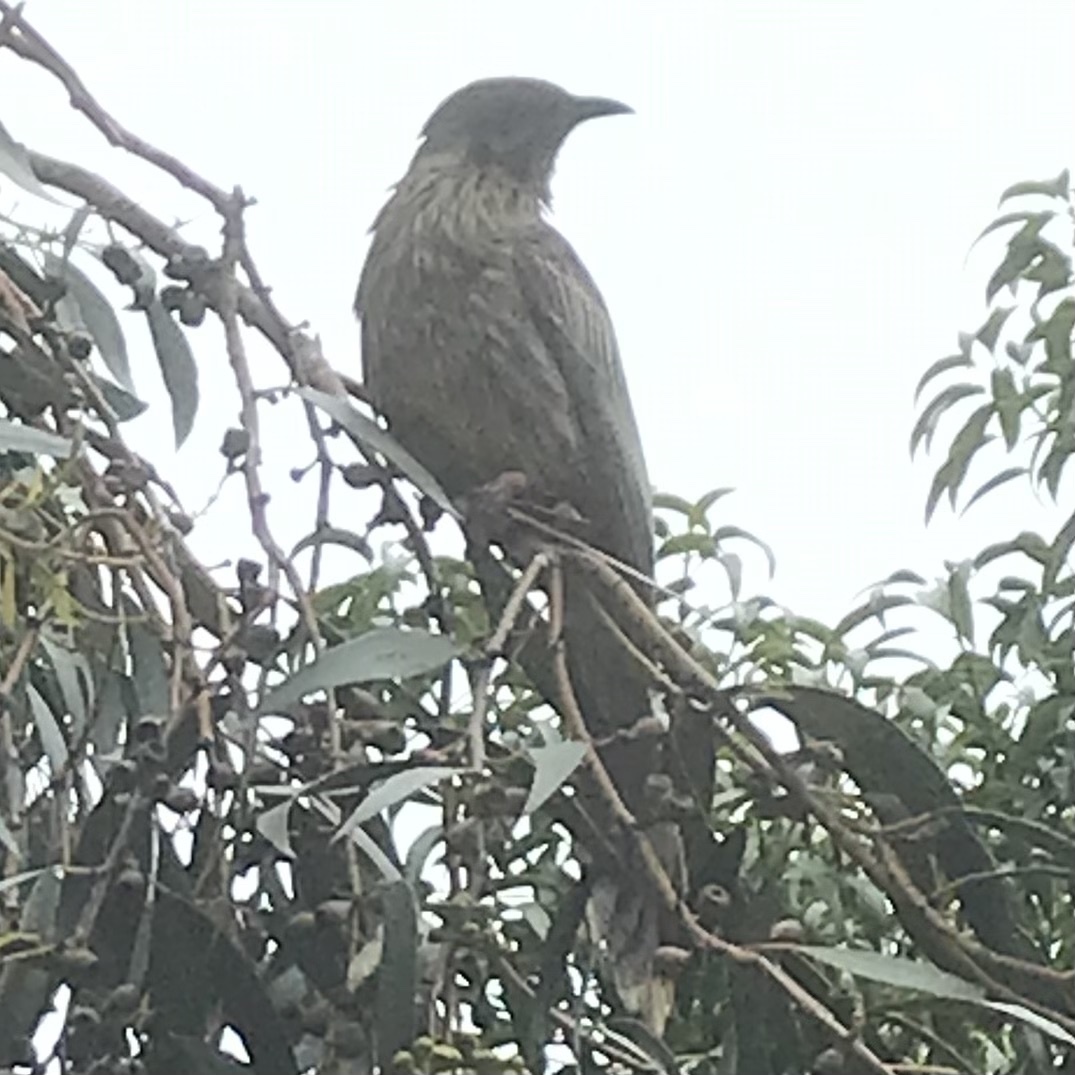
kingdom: Animalia
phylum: Chordata
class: Aves
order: Passeriformes
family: Meliphagidae
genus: Anthochaera
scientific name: Anthochaera carunculata
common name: Red wattlebird
